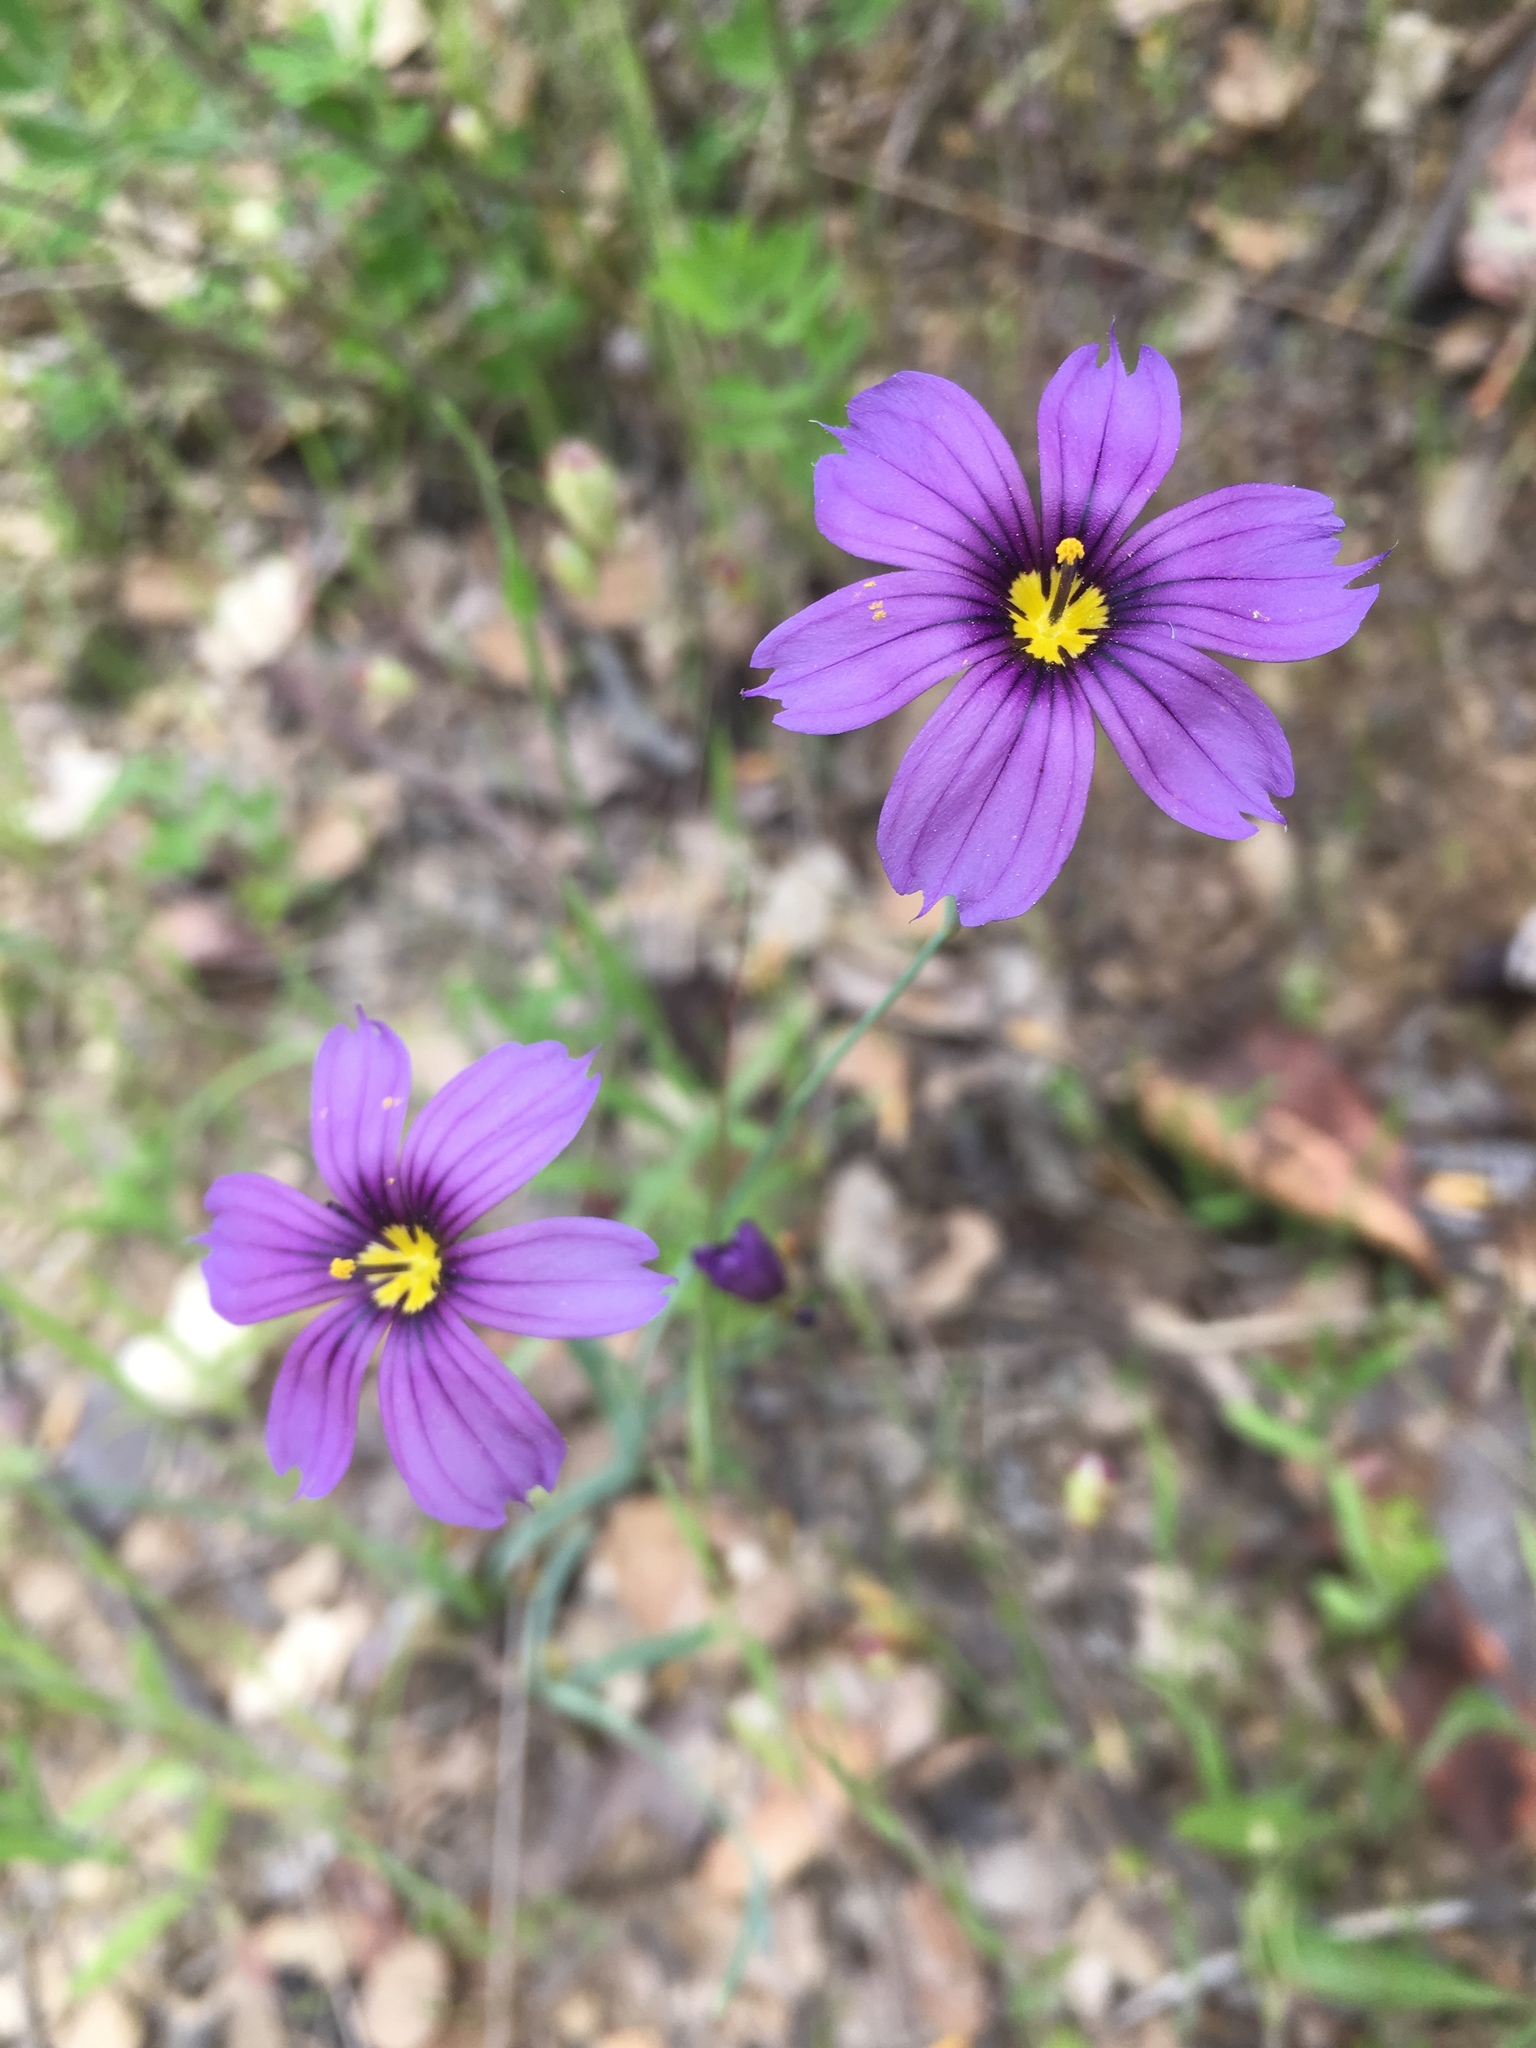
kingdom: Plantae
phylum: Tracheophyta
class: Liliopsida
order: Asparagales
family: Iridaceae
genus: Sisyrinchium
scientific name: Sisyrinchium bellum
